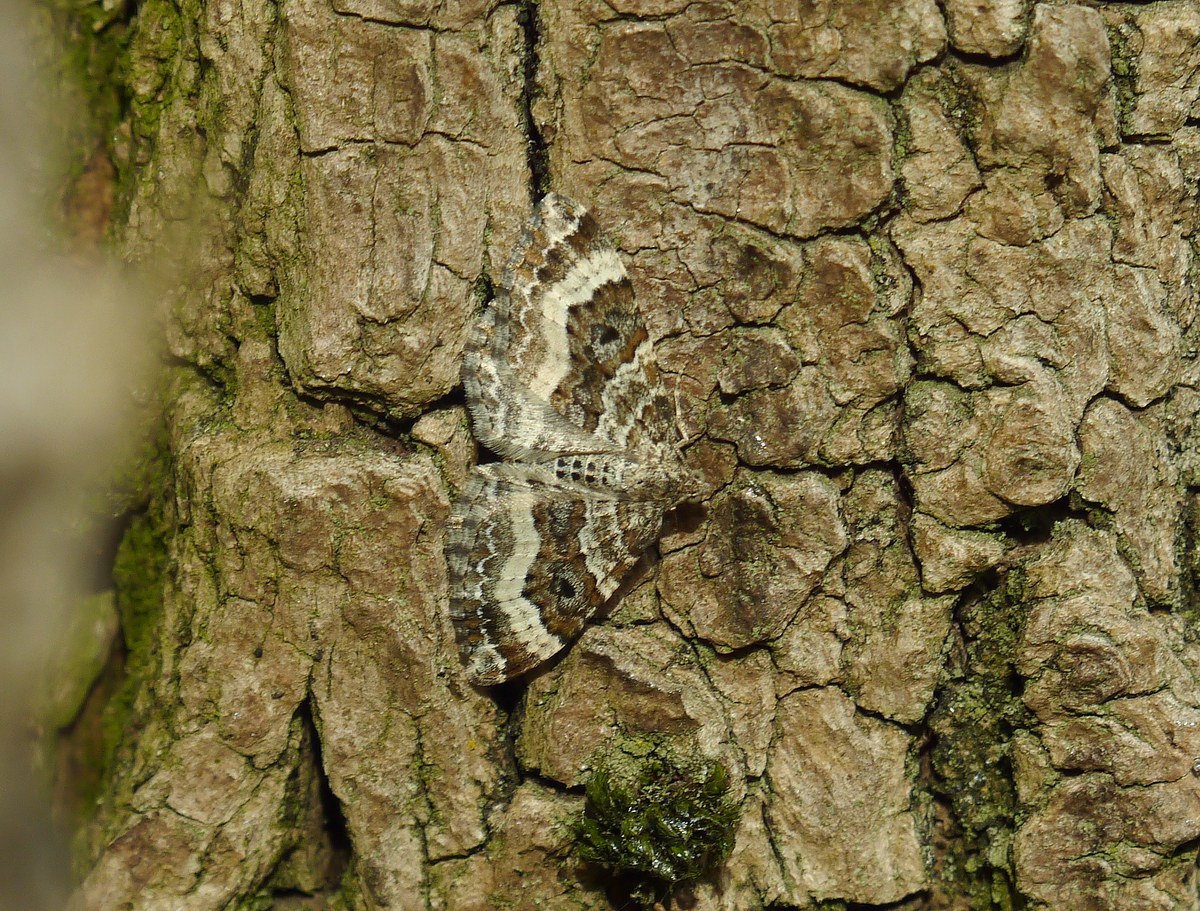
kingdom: Animalia
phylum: Arthropoda
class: Insecta
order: Lepidoptera
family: Geometridae
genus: Epirrhoe
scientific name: Epirrhoe alternata
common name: Common carpet
